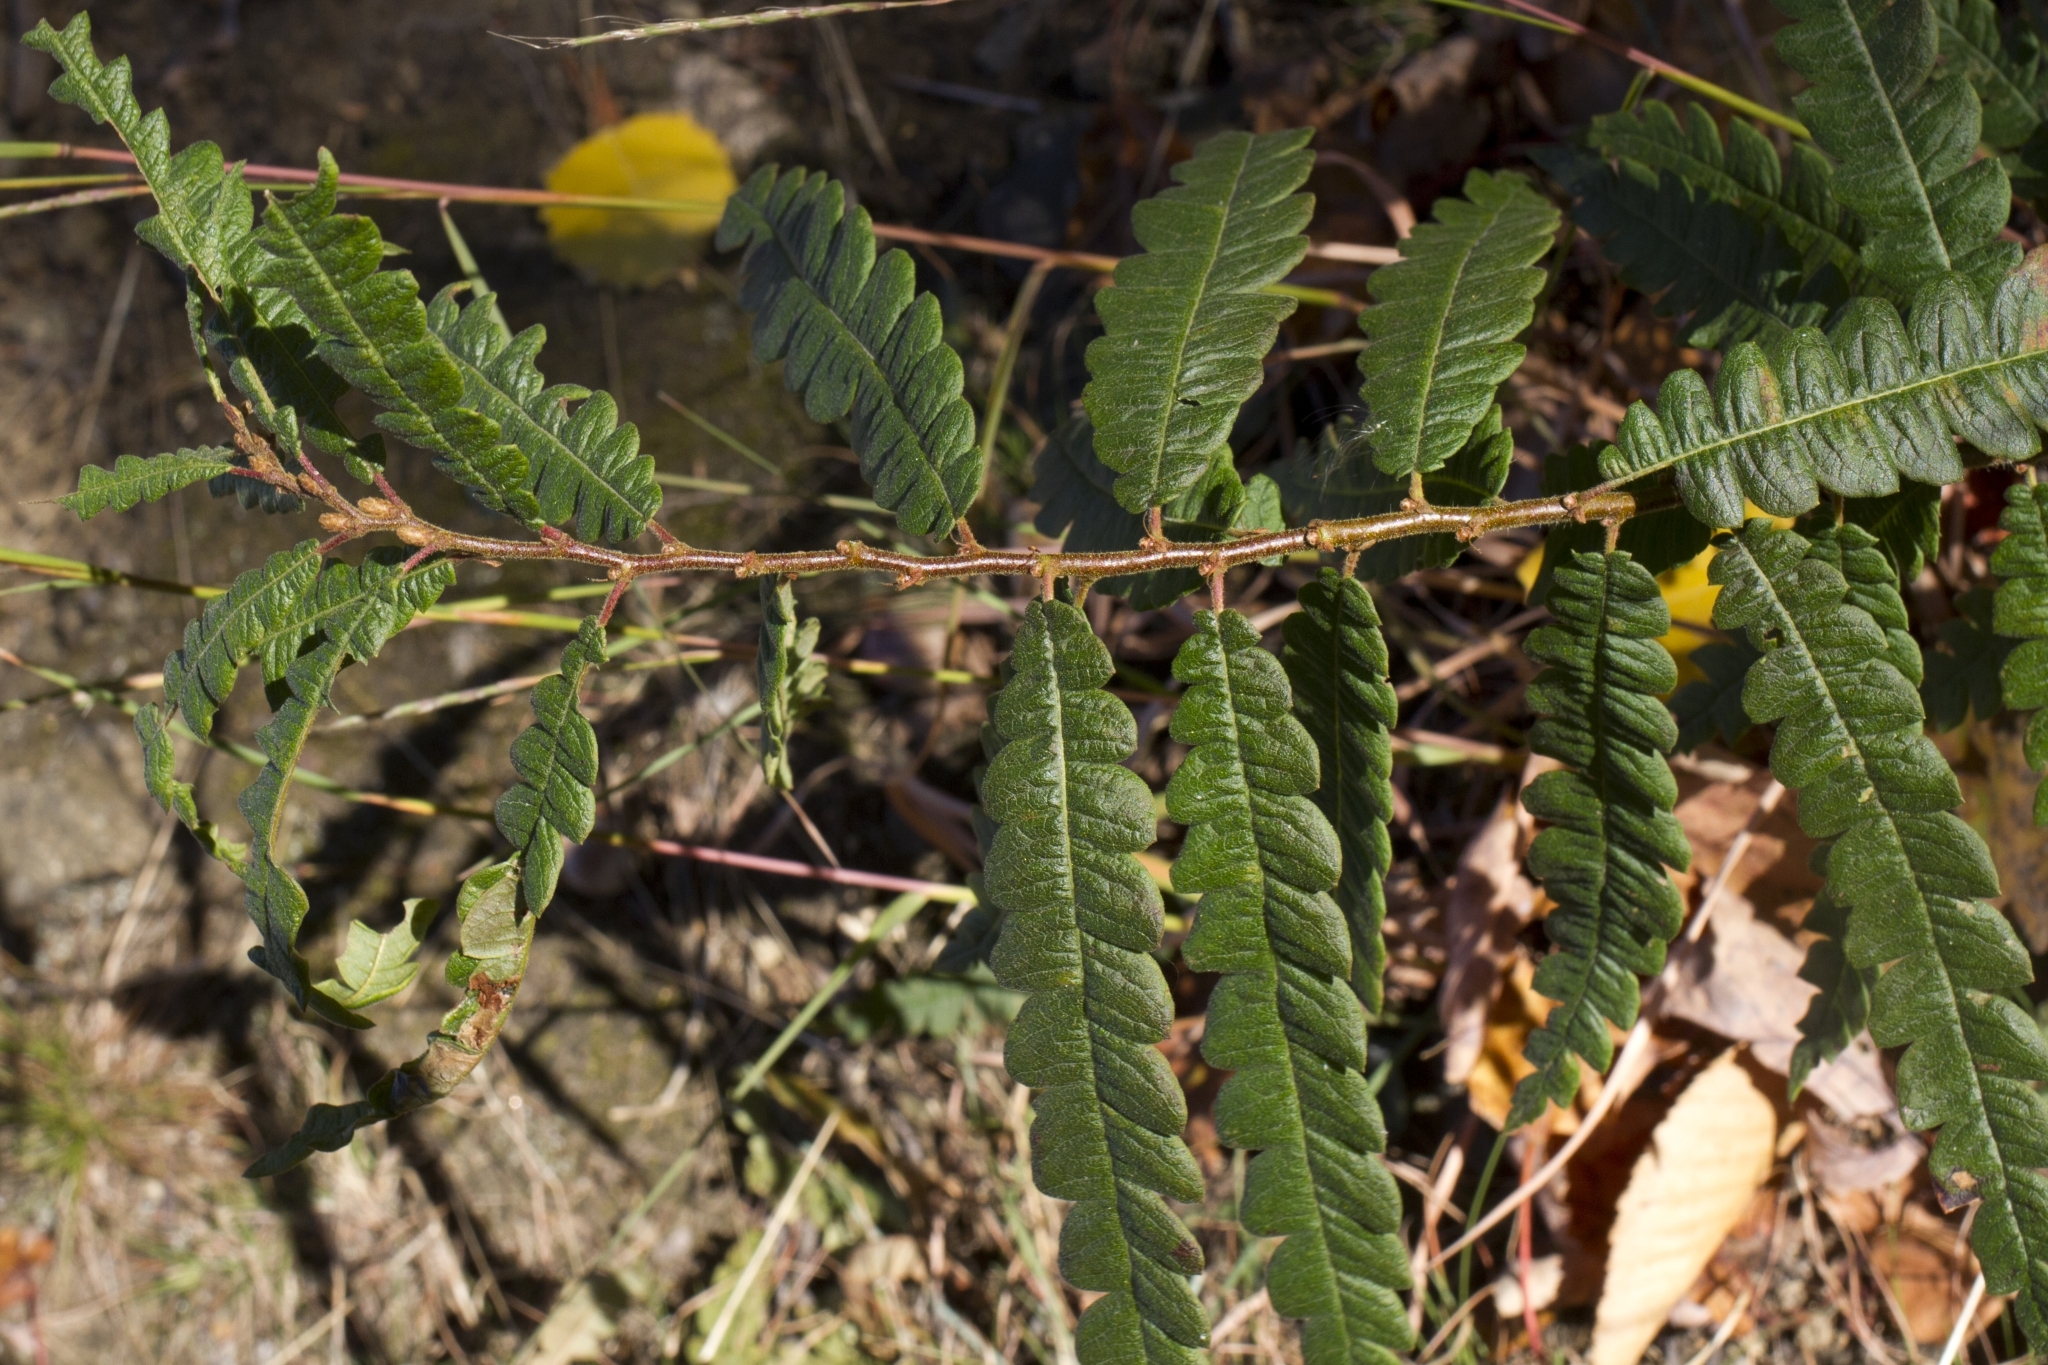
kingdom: Plantae
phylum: Tracheophyta
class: Magnoliopsida
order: Fagales
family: Myricaceae
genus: Comptonia
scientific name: Comptonia peregrina
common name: Sweet-fern
